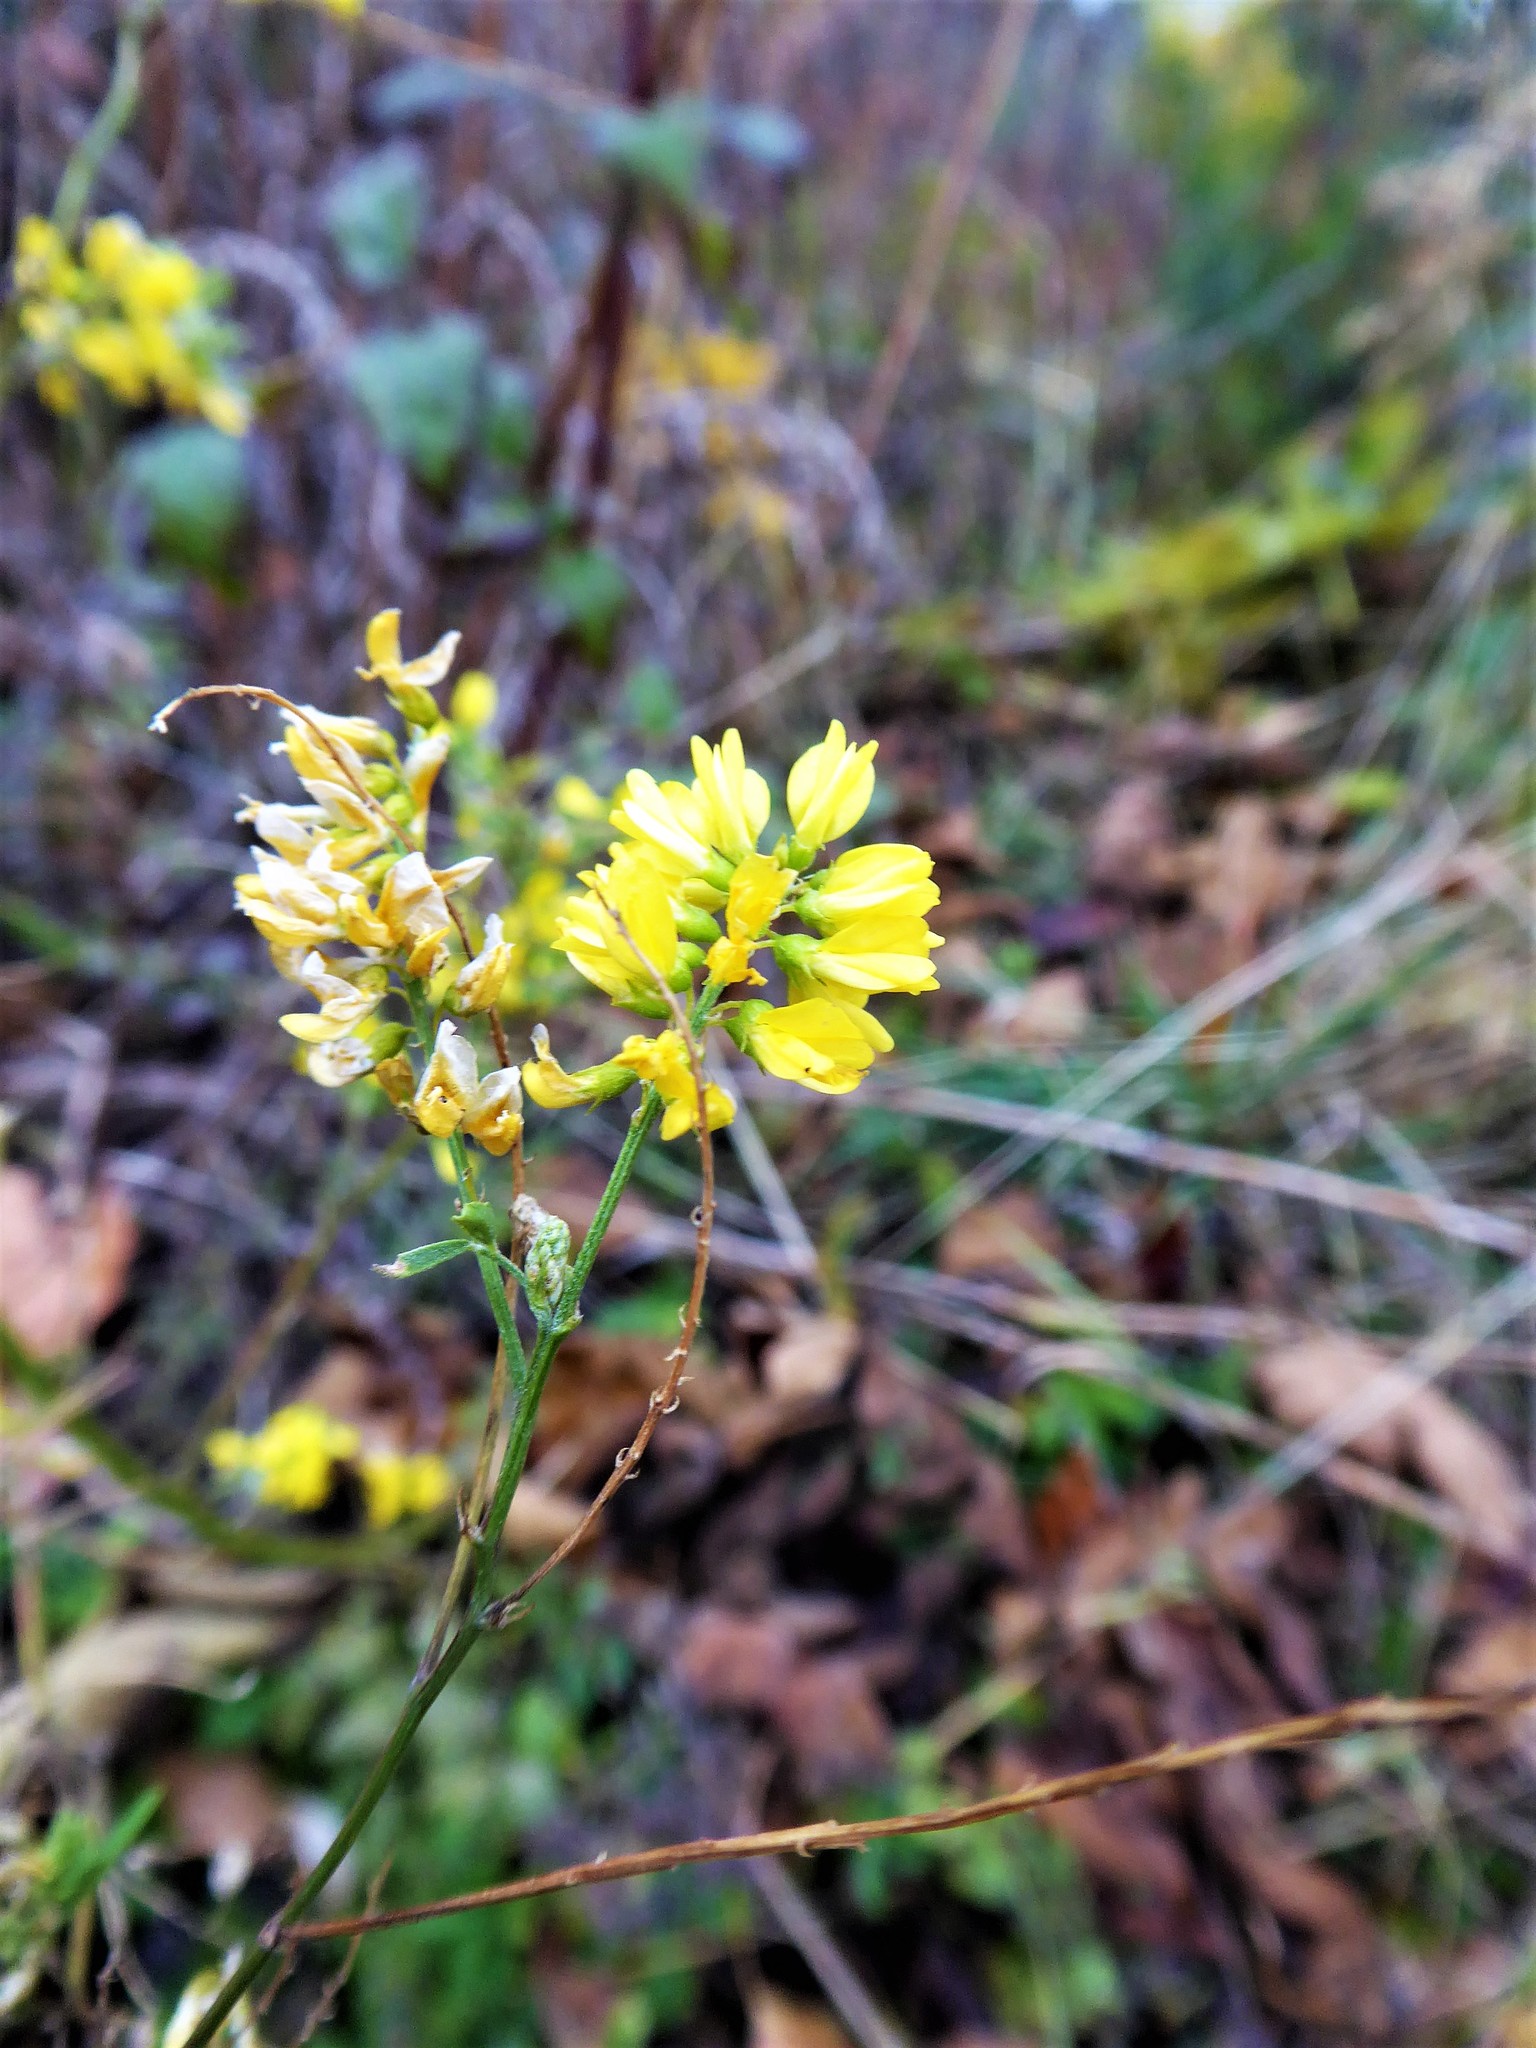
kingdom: Plantae
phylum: Tracheophyta
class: Magnoliopsida
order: Fabales
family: Fabaceae
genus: Melilotus
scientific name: Melilotus officinalis
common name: Sweetclover
